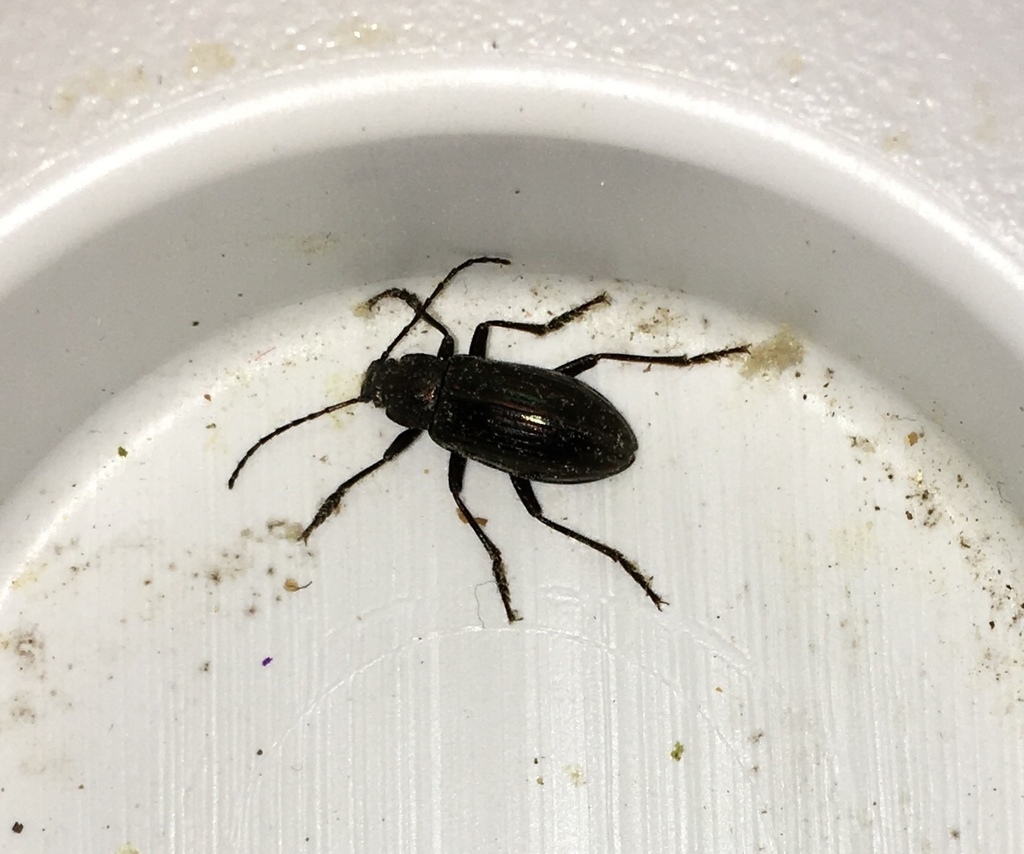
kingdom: Animalia
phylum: Arthropoda
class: Insecta
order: Coleoptera
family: Tenebrionidae
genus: Tarpela
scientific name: Tarpela micans
